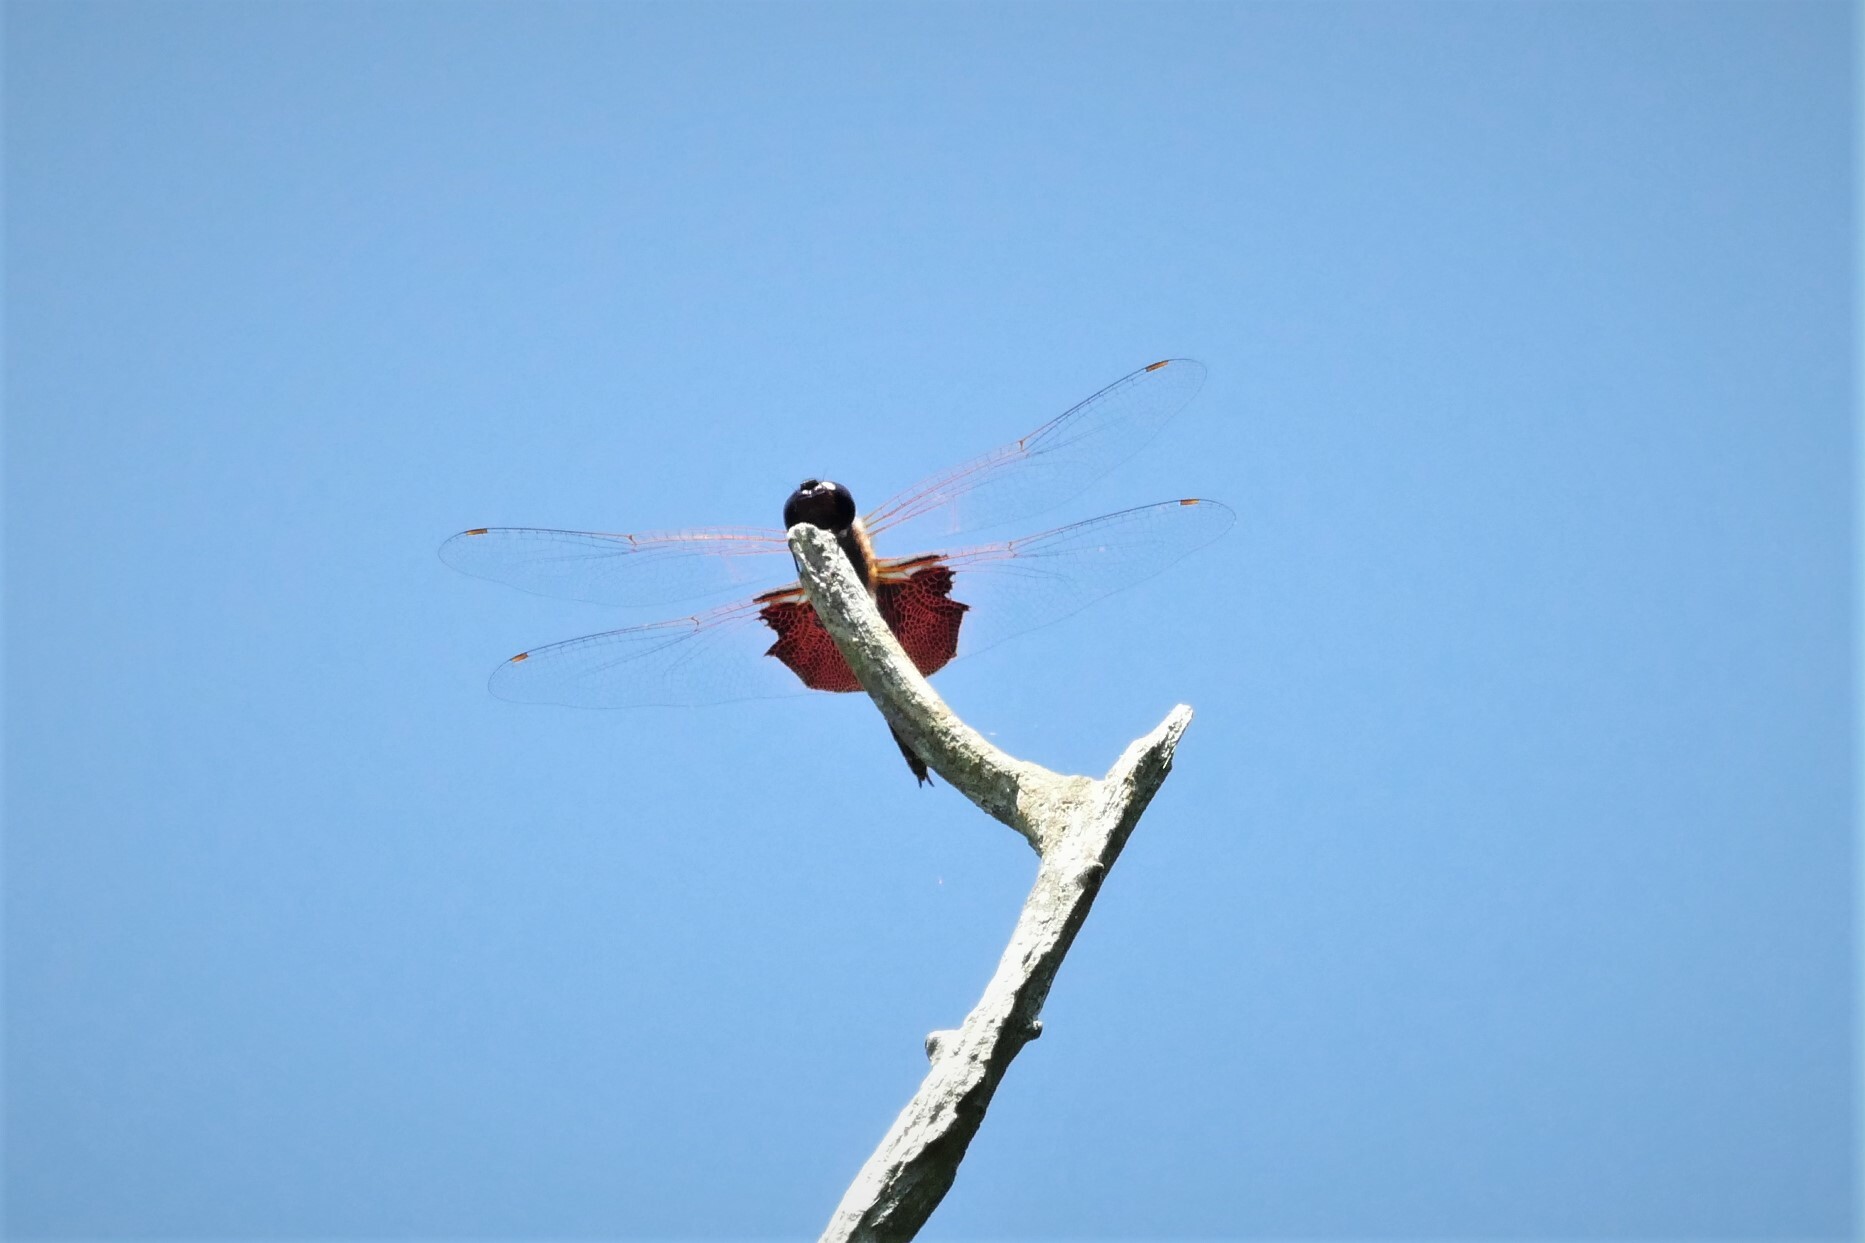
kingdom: Animalia
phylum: Arthropoda
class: Insecta
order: Odonata
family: Libellulidae
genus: Tramea
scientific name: Tramea carolina
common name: Carolina saddlebags
